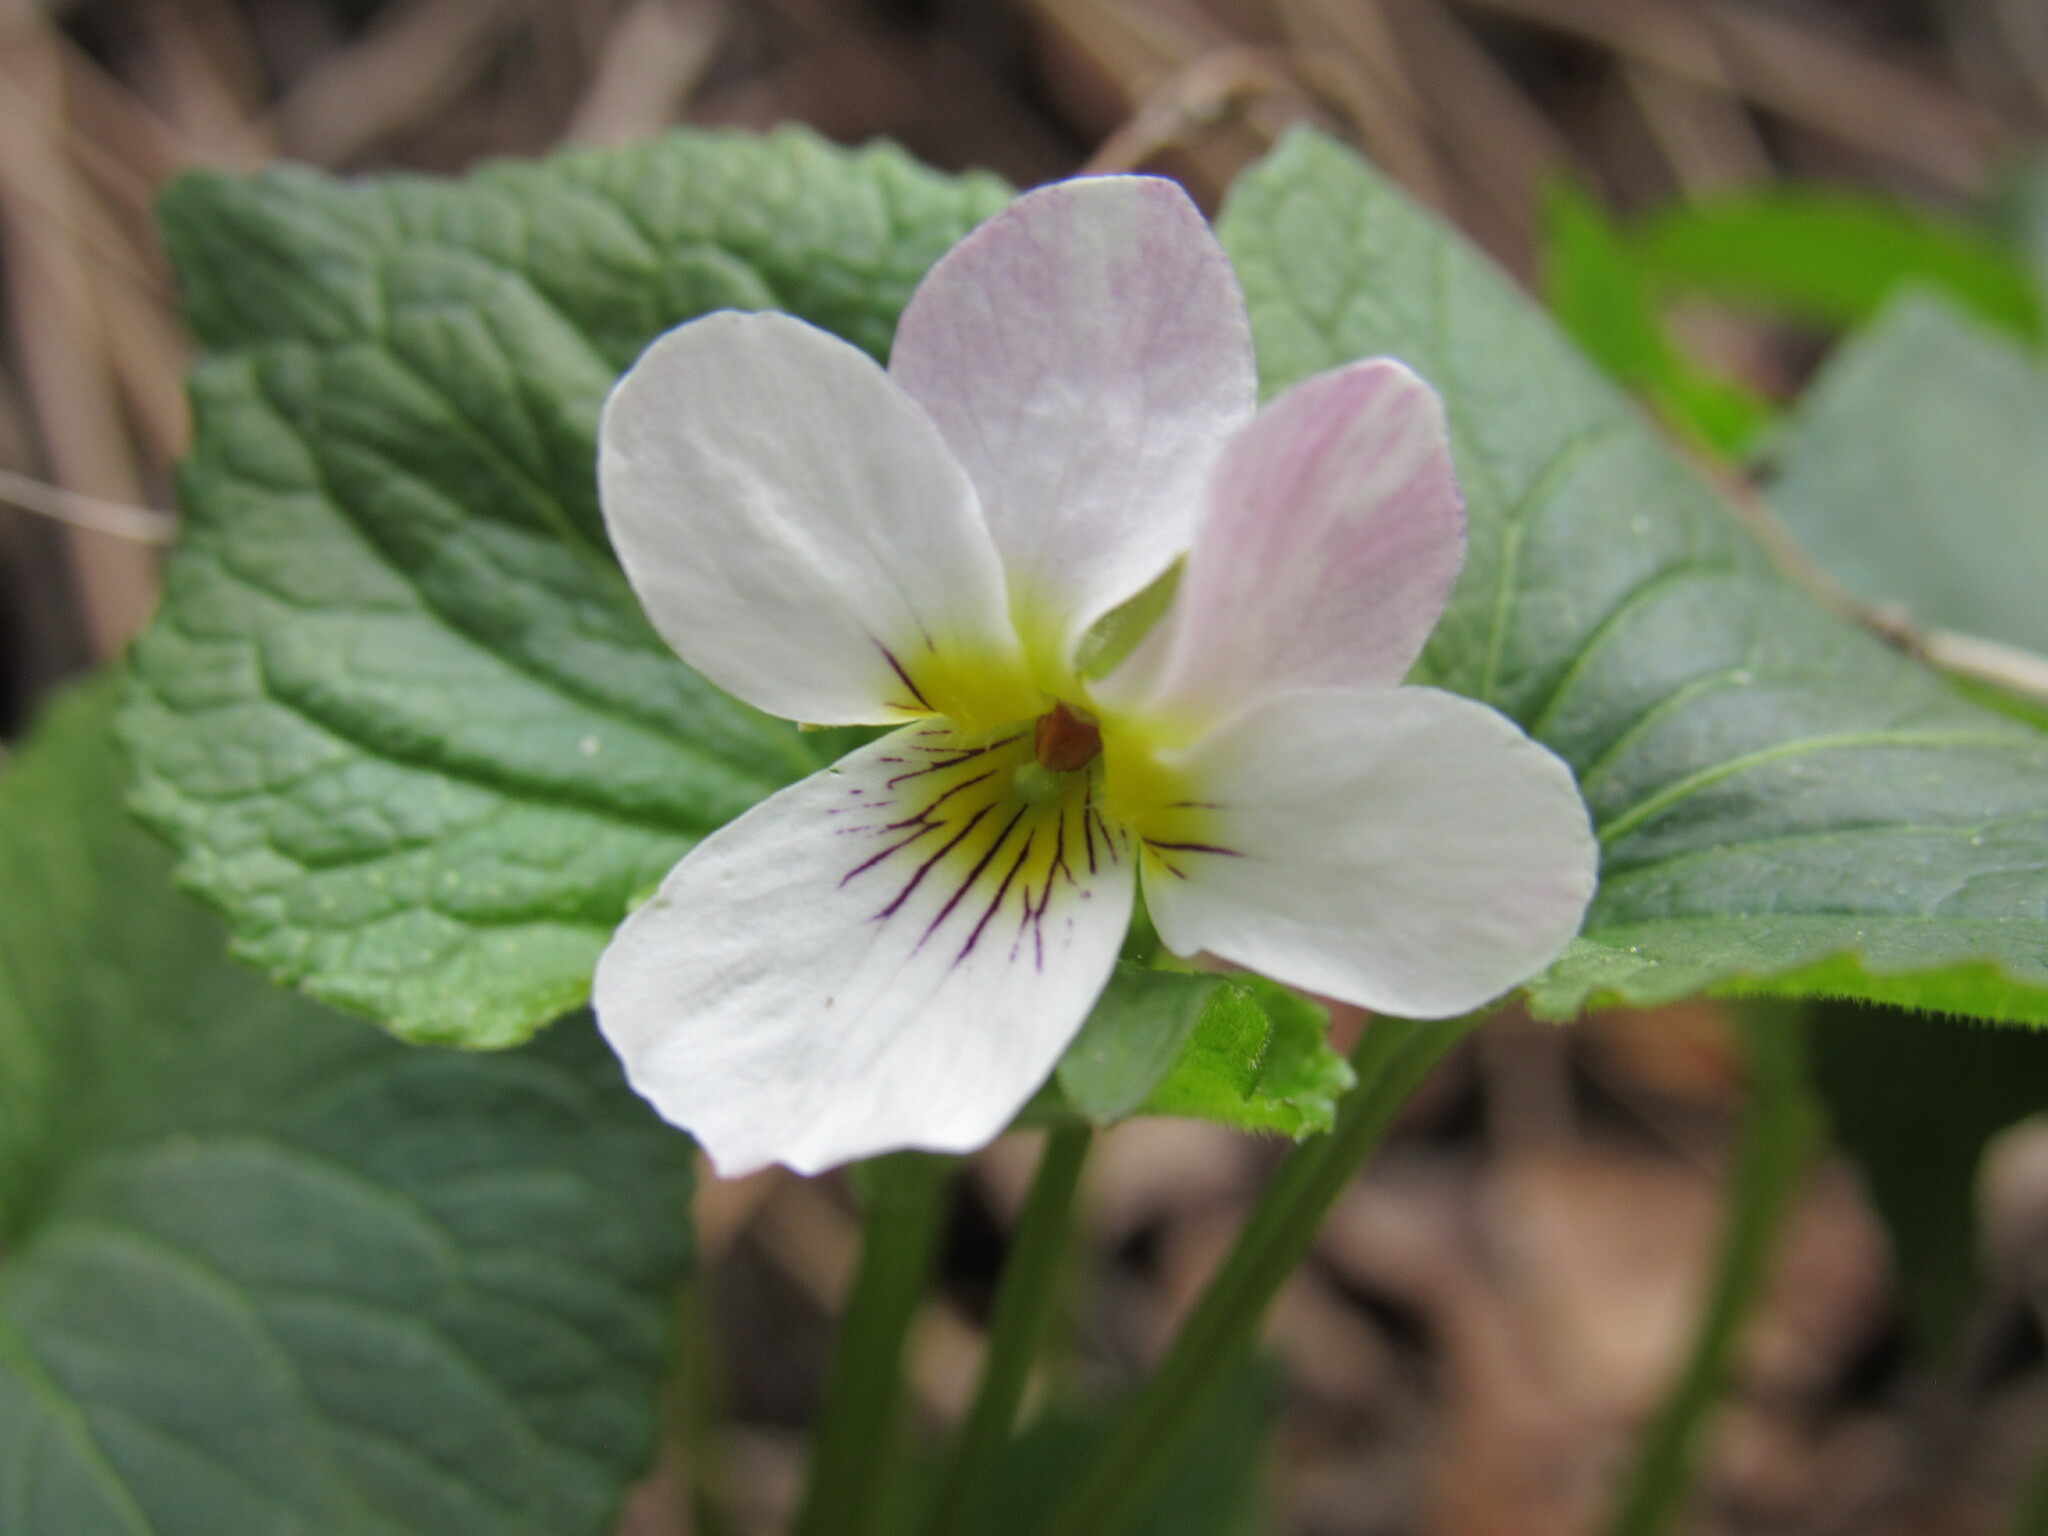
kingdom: Plantae
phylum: Tracheophyta
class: Magnoliopsida
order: Malpighiales
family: Violaceae
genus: Viola
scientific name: Viola canadensis
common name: Canada violet
